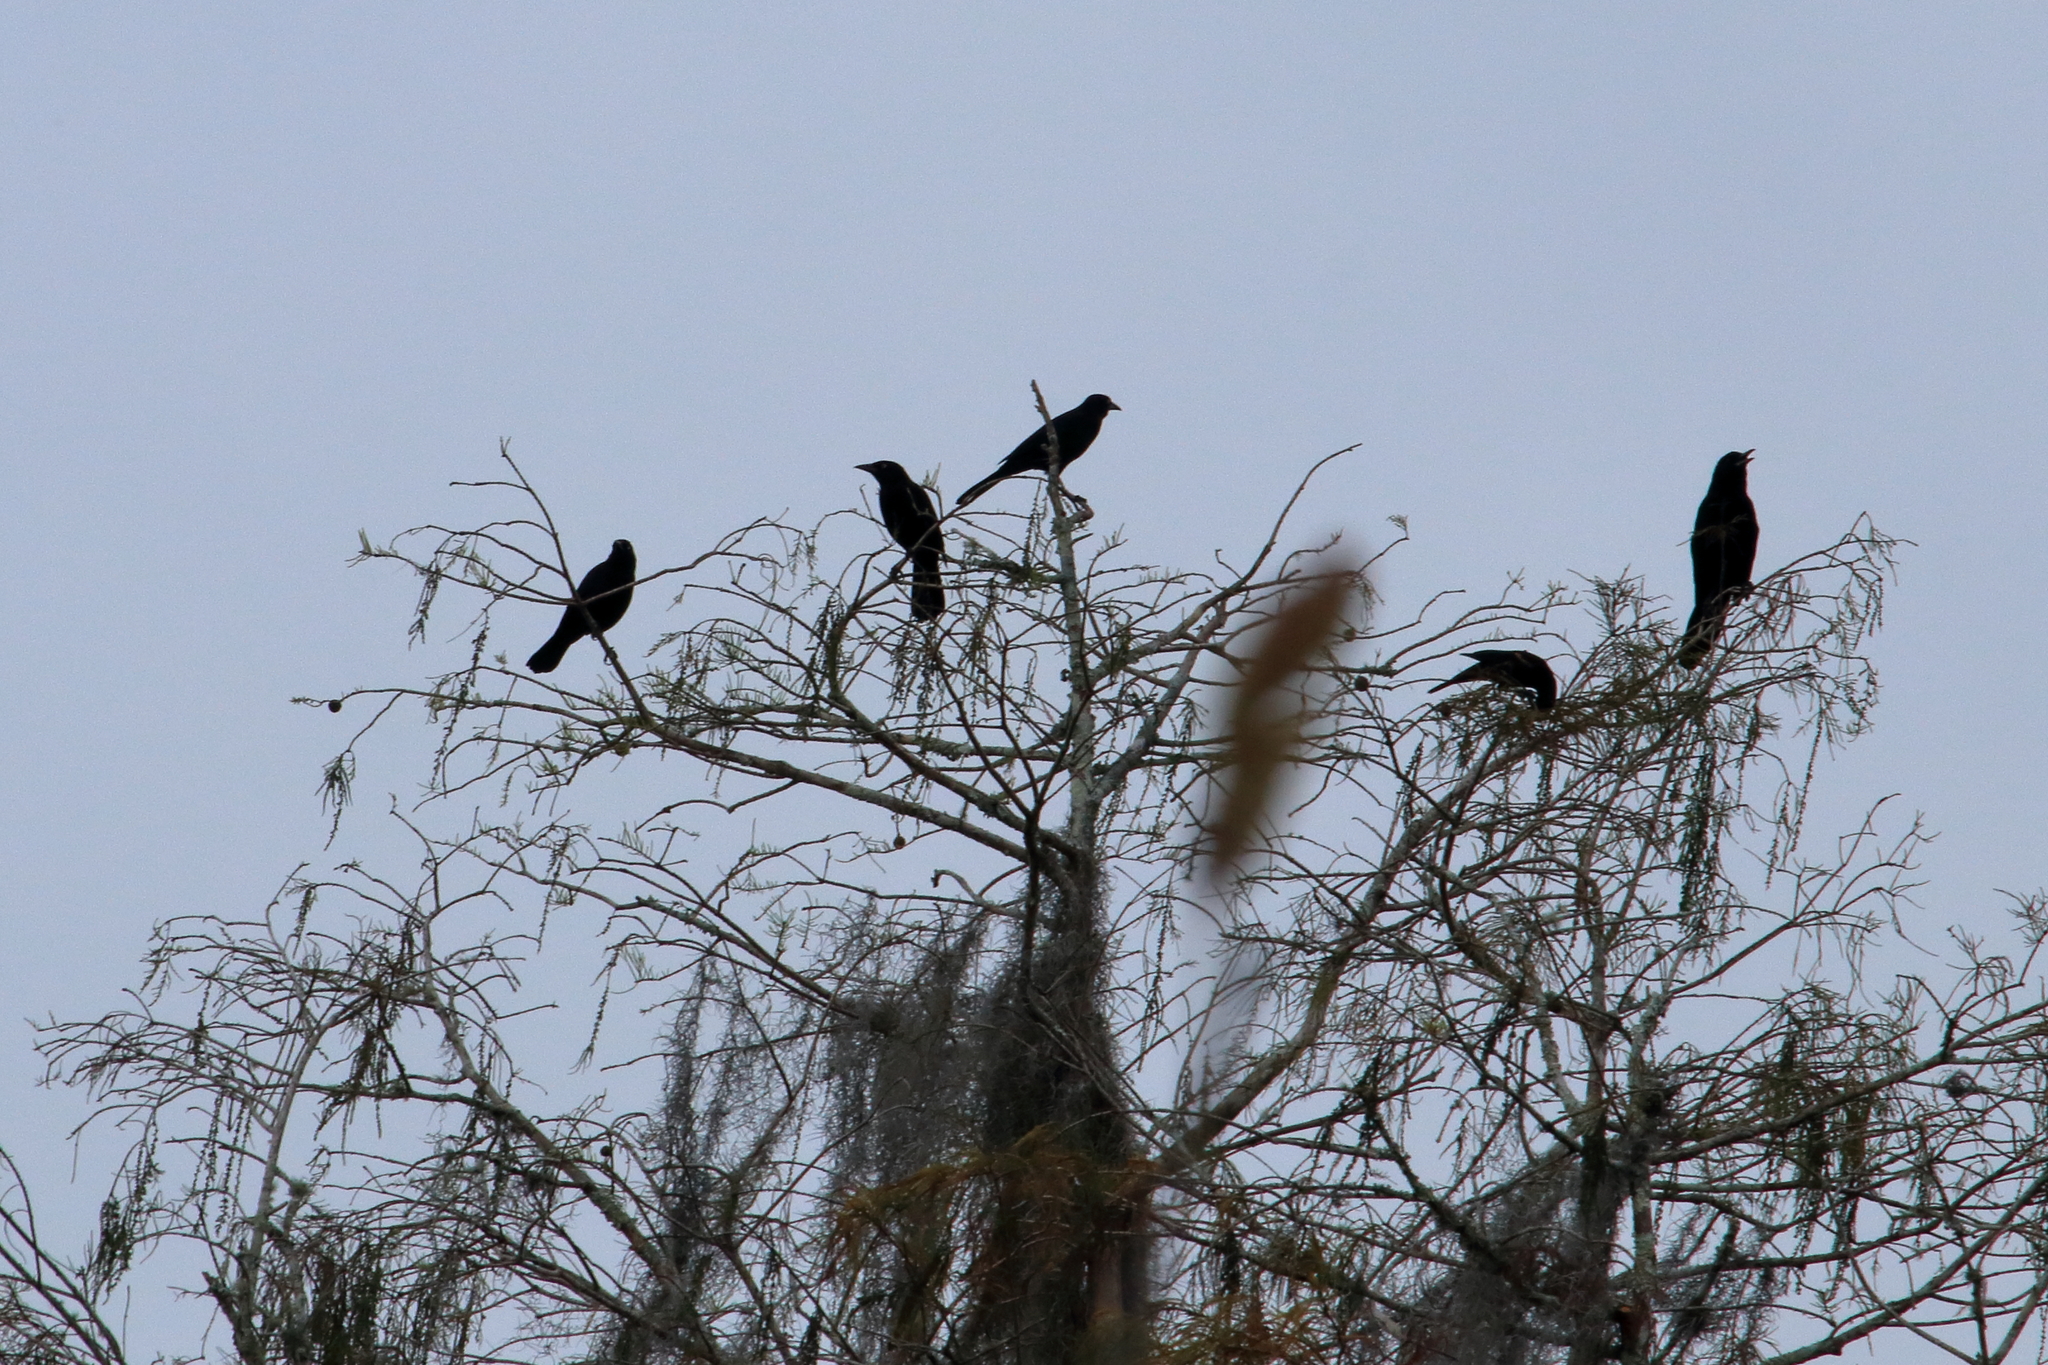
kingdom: Animalia
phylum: Chordata
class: Aves
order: Passeriformes
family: Icteridae
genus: Quiscalus
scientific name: Quiscalus major
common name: Boat-tailed grackle
